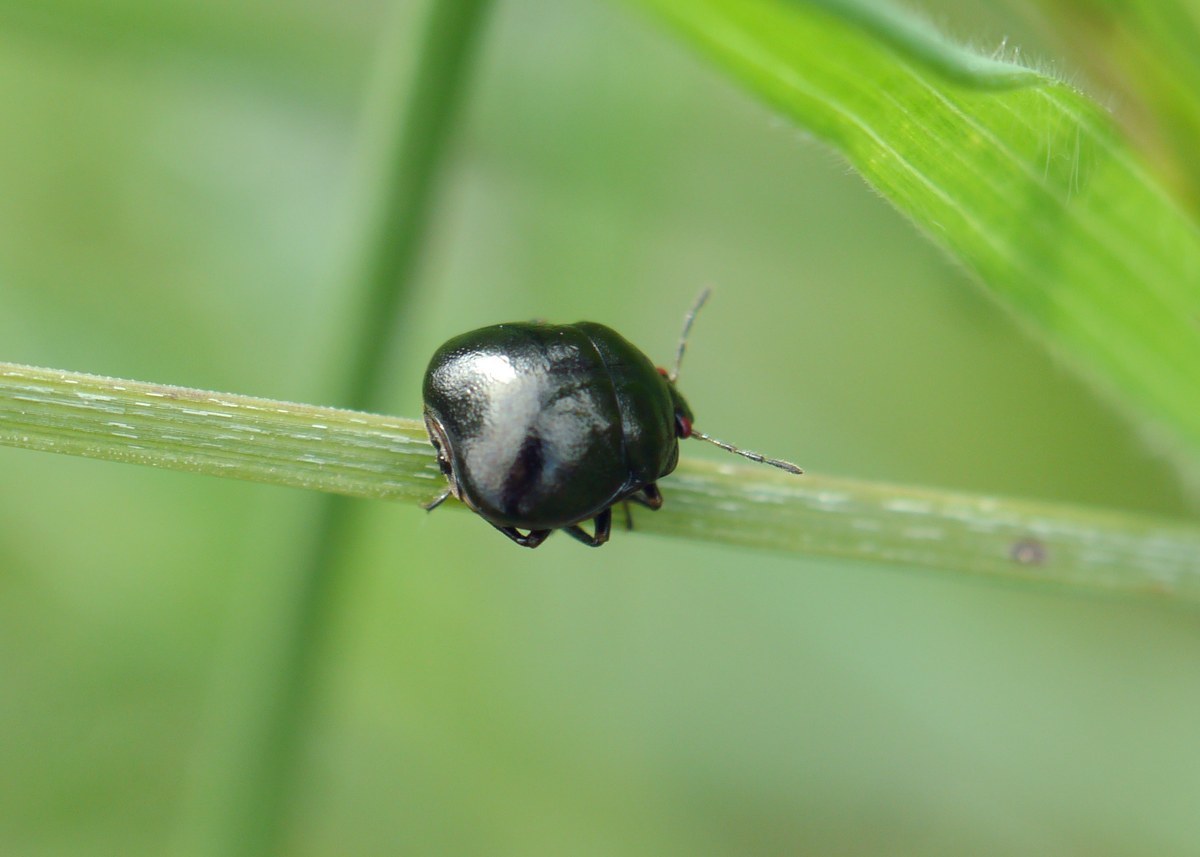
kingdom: Animalia
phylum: Arthropoda
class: Insecta
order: Hemiptera
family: Plataspidae
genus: Coptosoma
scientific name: Coptosoma scutellatum
